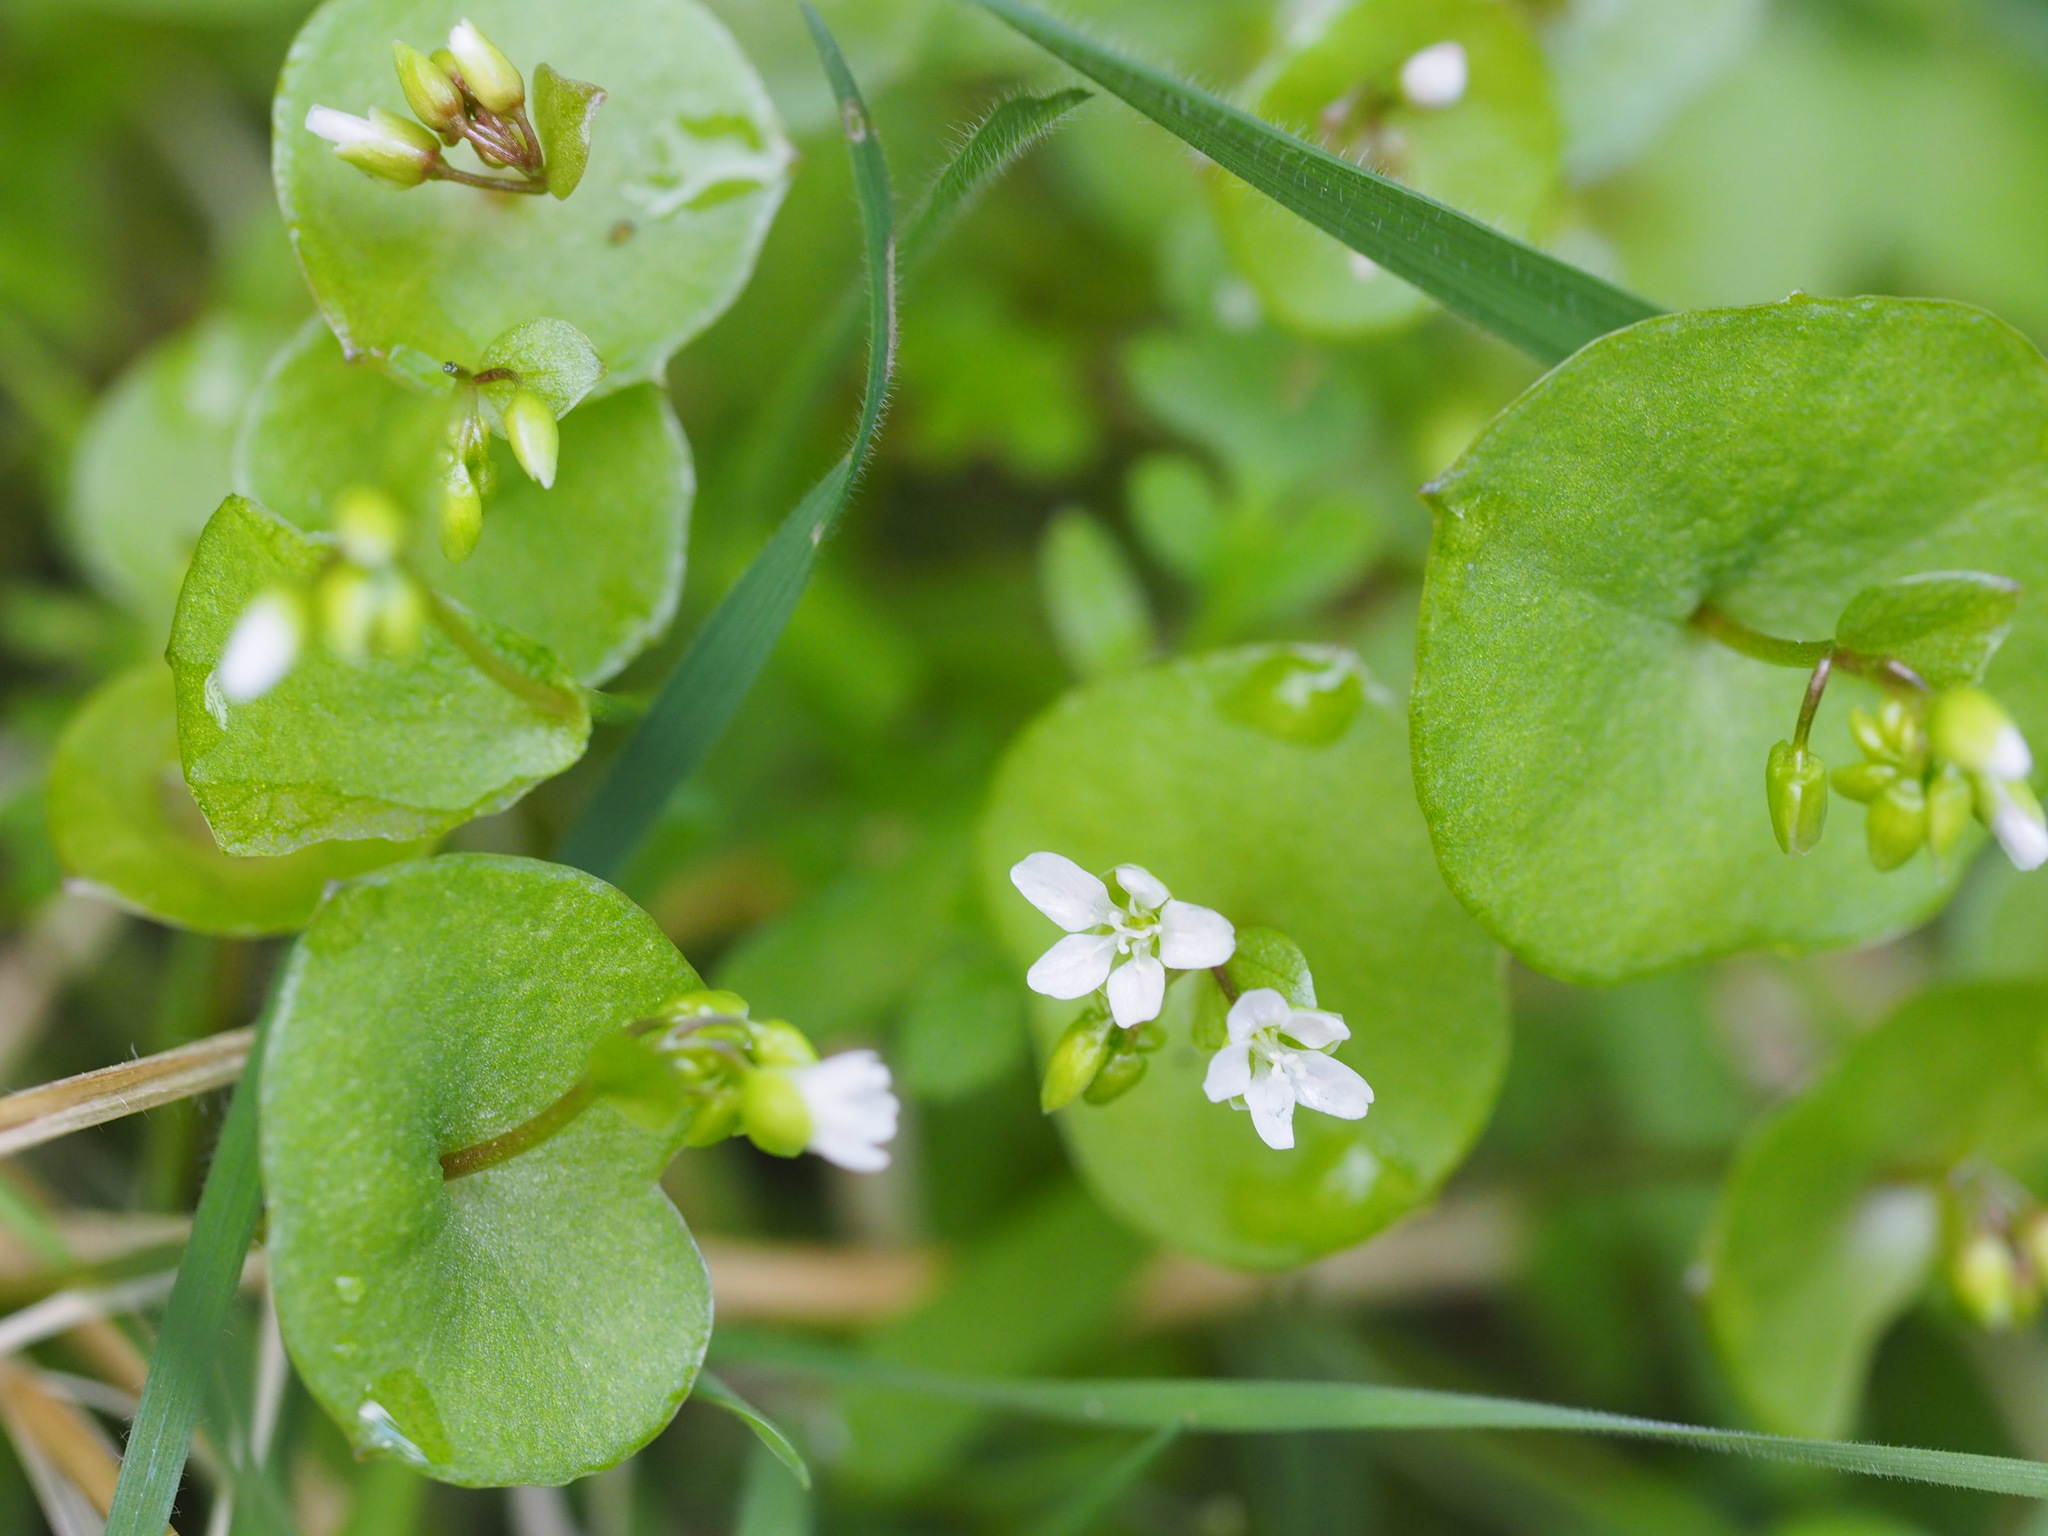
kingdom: Plantae
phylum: Tracheophyta
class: Magnoliopsida
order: Caryophyllales
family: Montiaceae
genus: Claytonia
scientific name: Claytonia perfoliata
